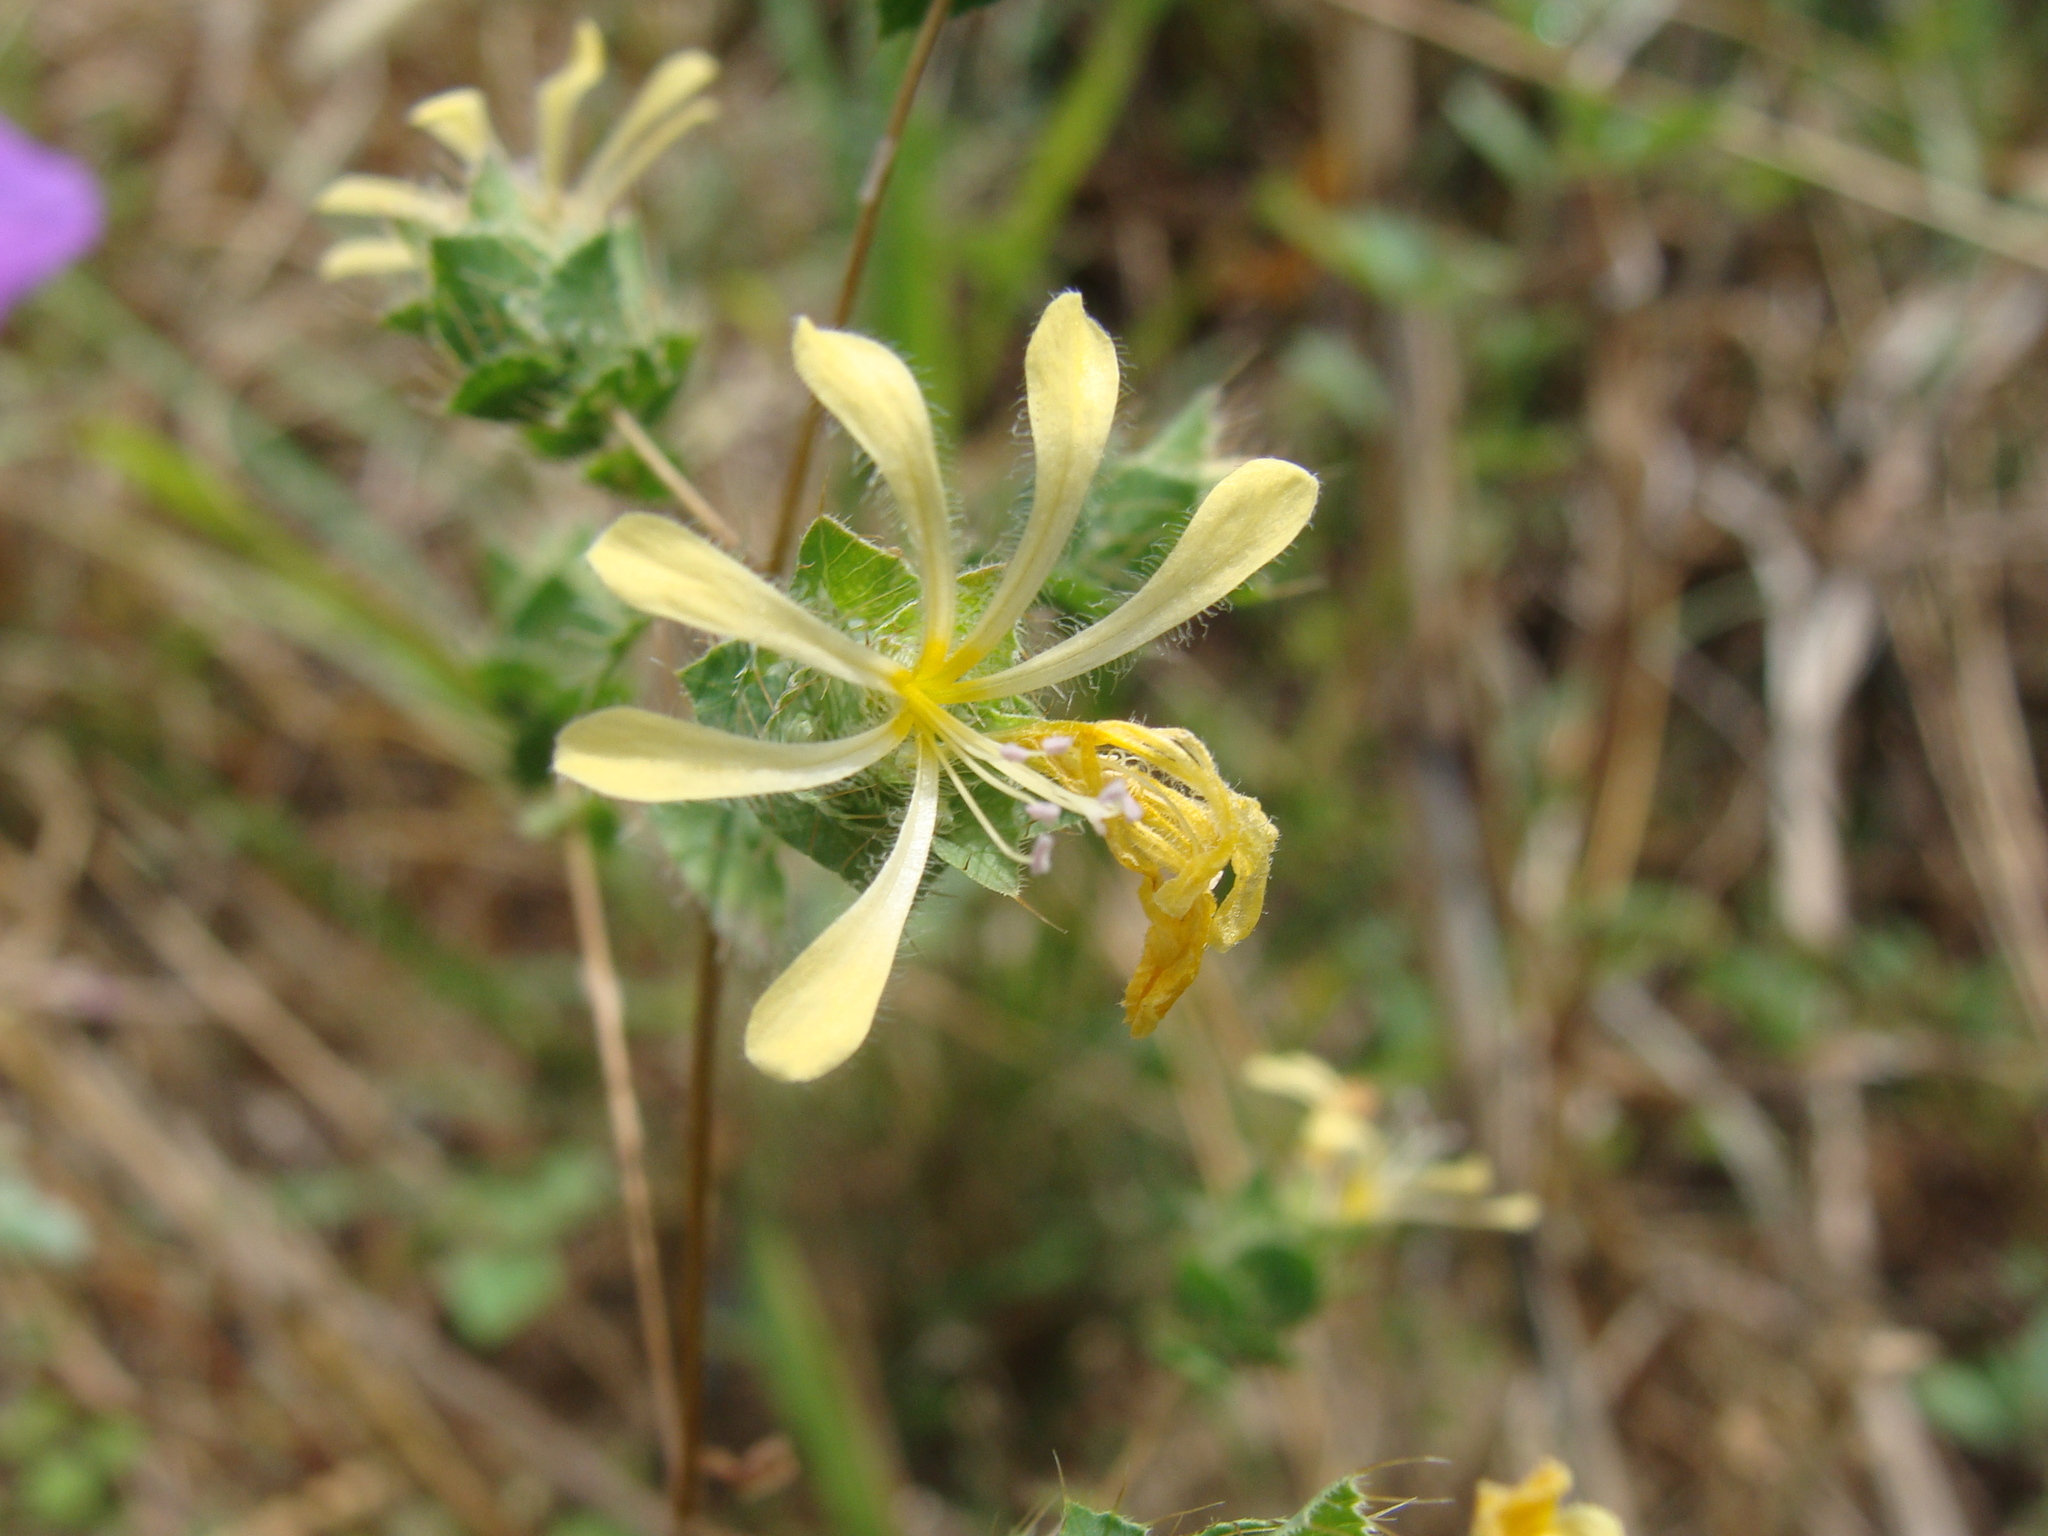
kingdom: Plantae
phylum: Tracheophyta
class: Magnoliopsida
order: Ericales
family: Polemoniaceae
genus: Loeselia
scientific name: Loeselia ciliata
